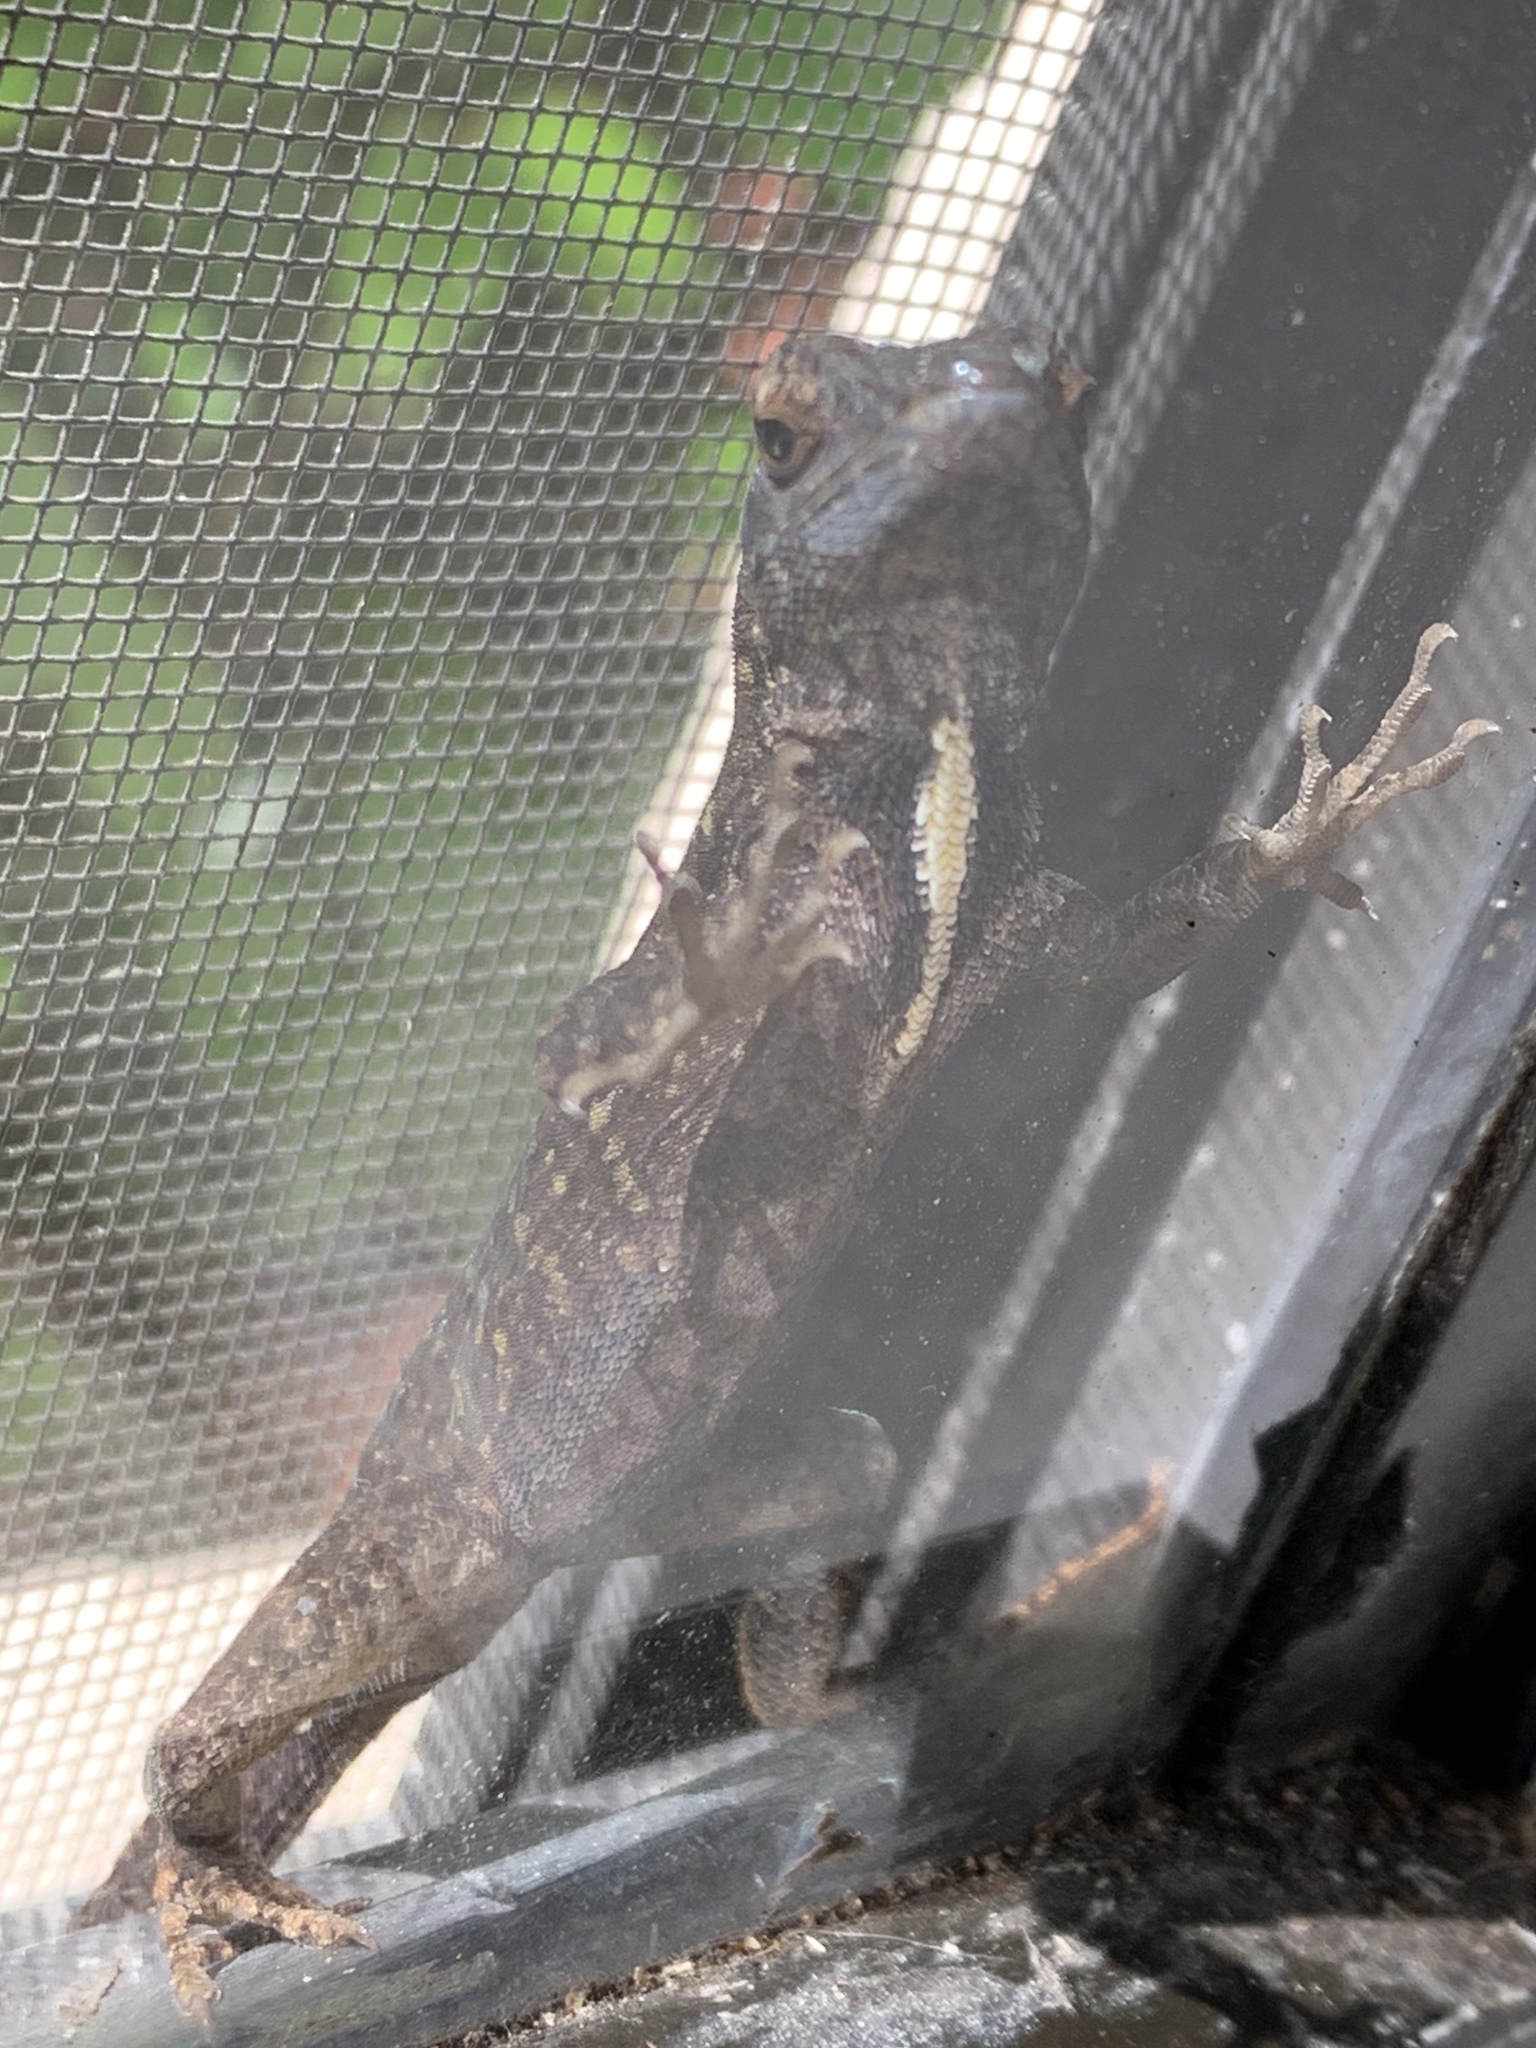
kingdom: Animalia
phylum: Chordata
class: Squamata
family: Dactyloidae
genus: Anolis
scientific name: Anolis sagrei
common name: Brown anole
